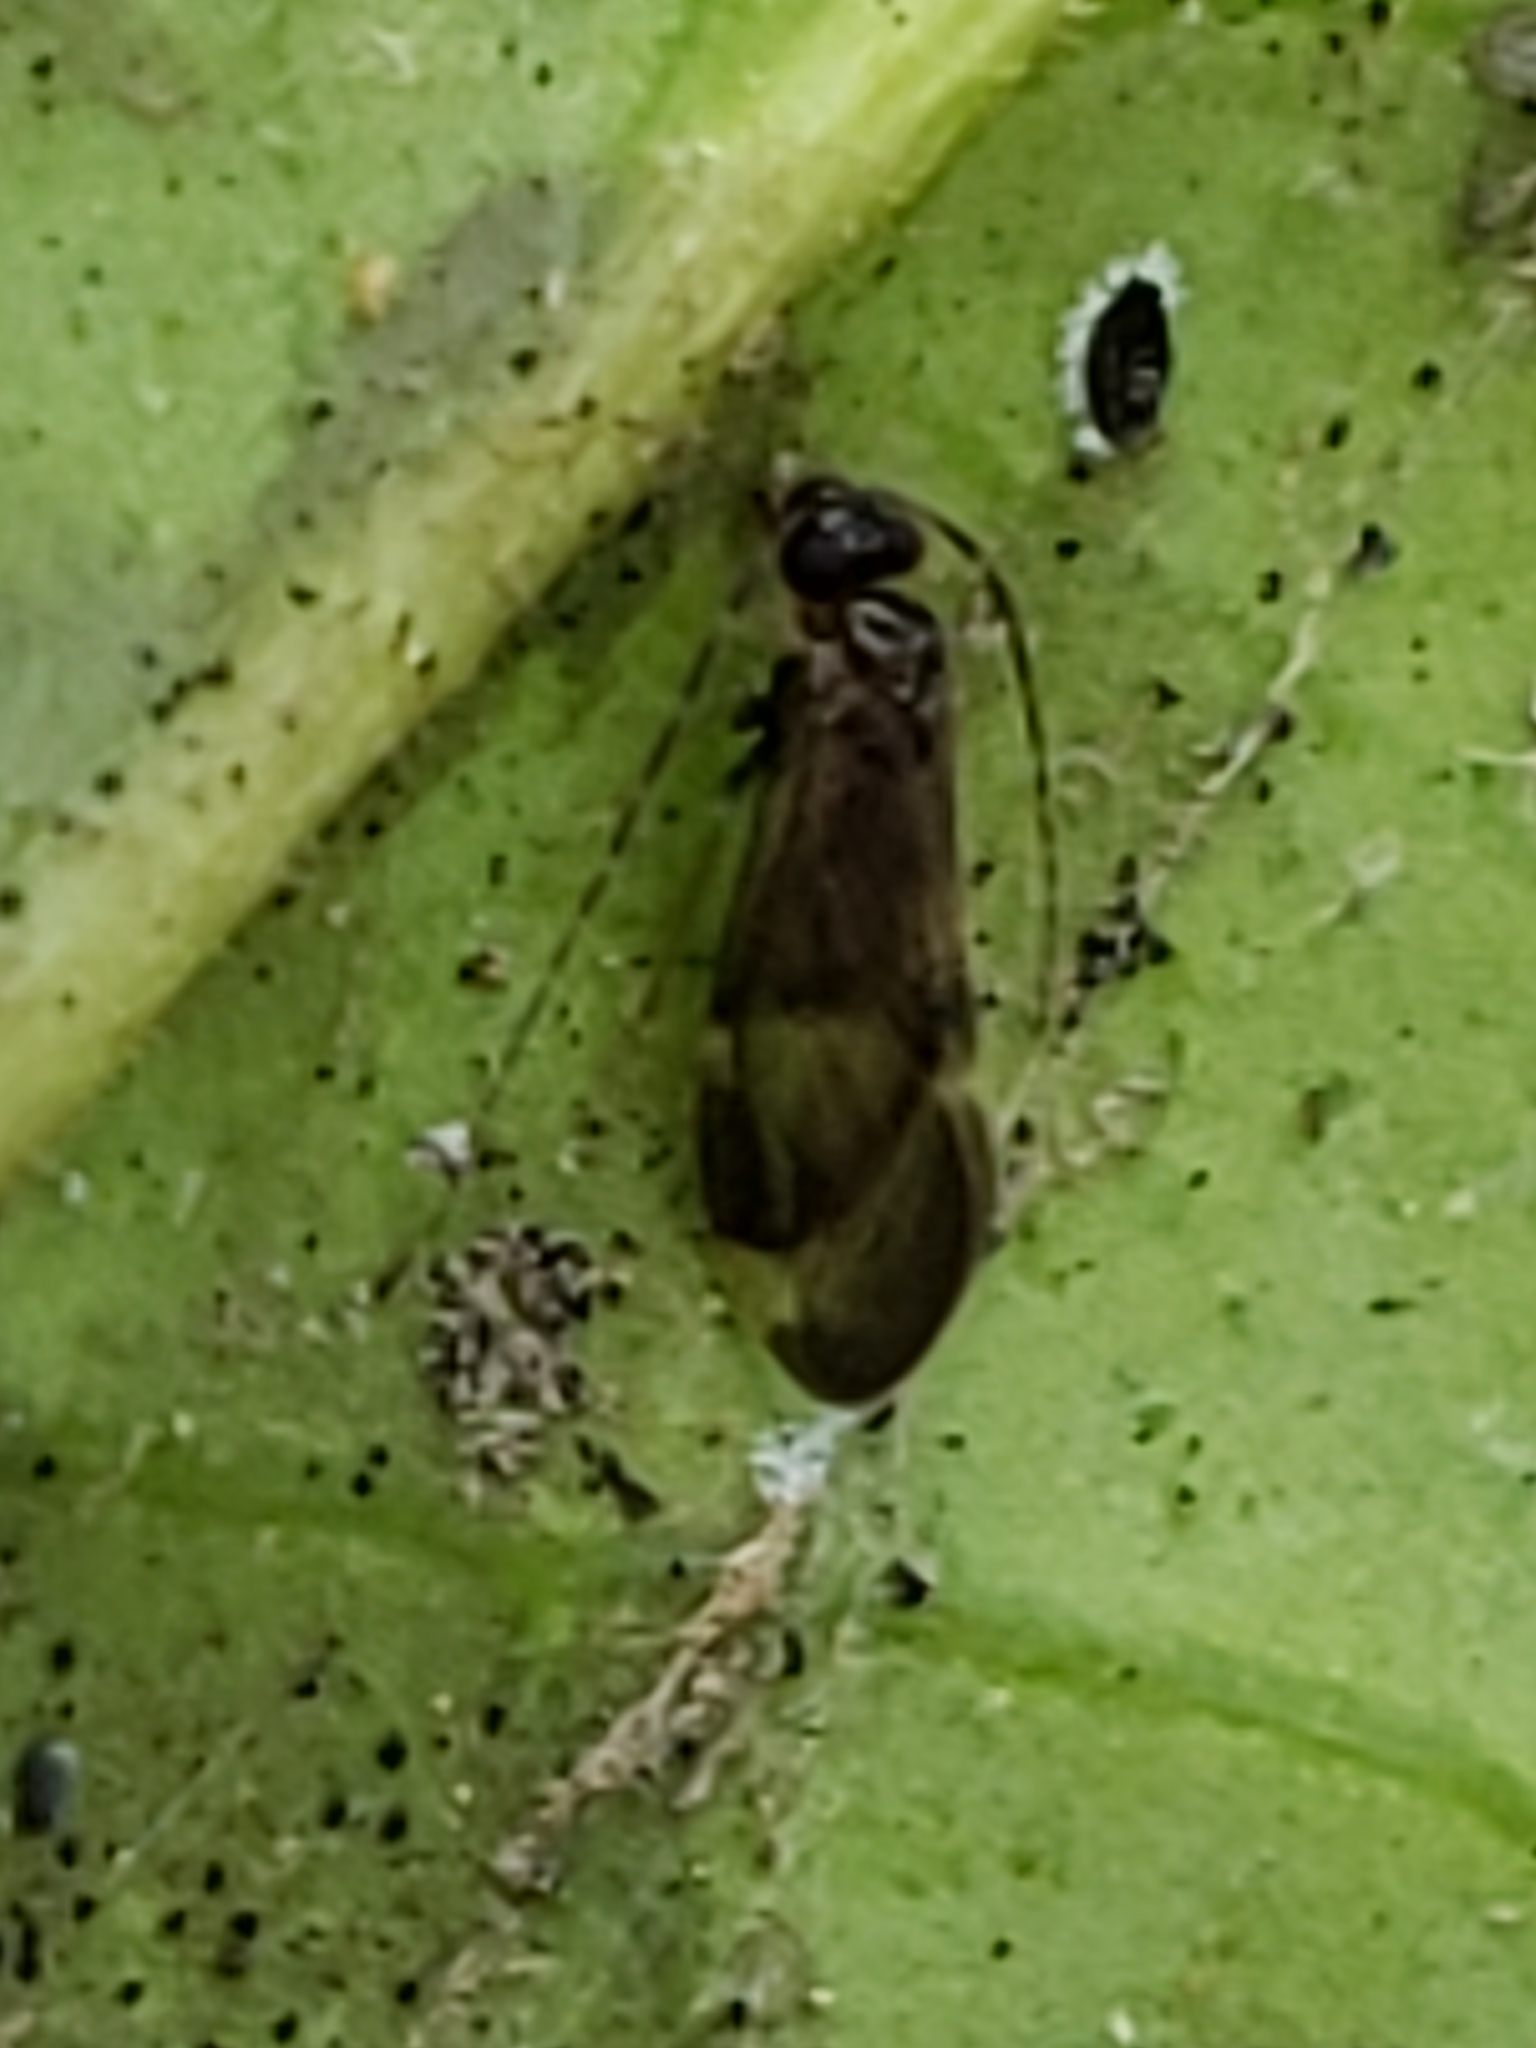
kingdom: Animalia
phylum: Arthropoda
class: Insecta
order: Psocodea
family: Amphipsocidae
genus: Polypsocus
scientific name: Polypsocus corruptus
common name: Corrupt barklouse
